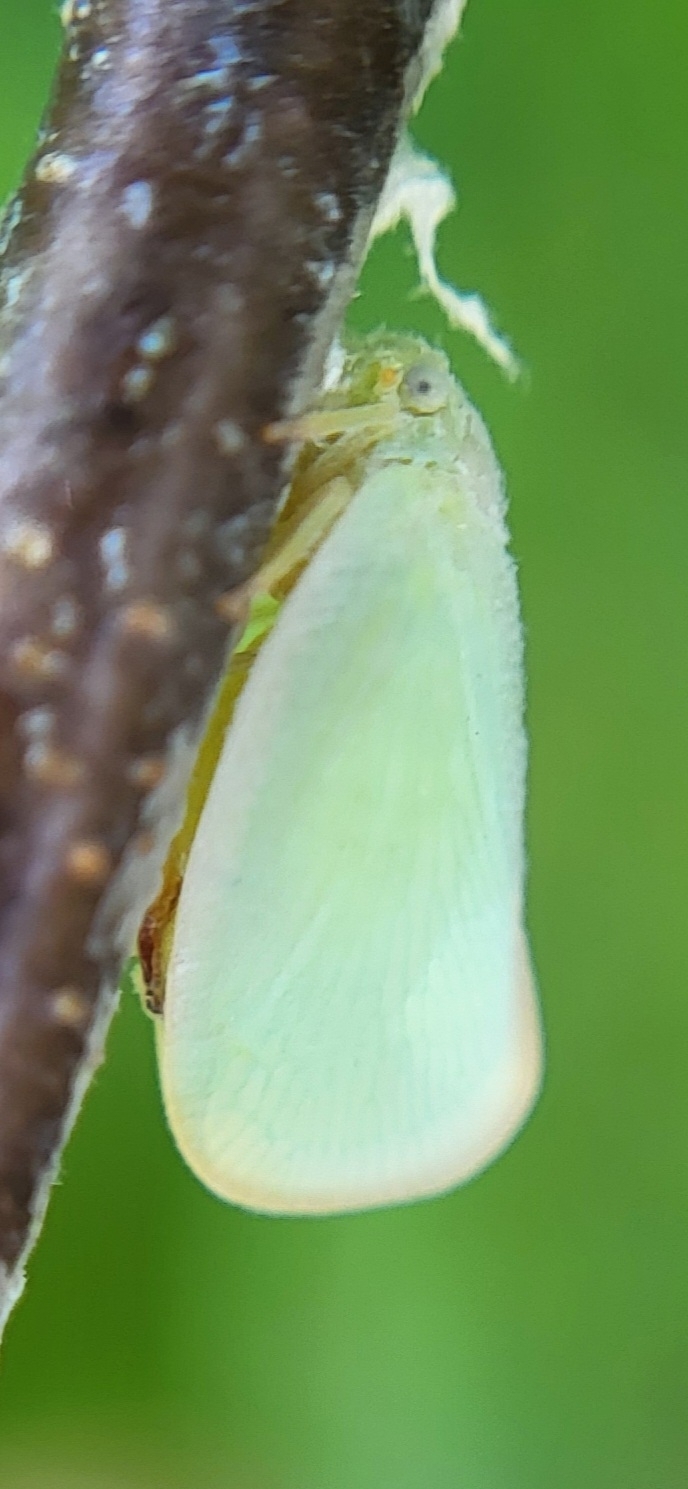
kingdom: Animalia
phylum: Arthropoda
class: Insecta
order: Hemiptera
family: Flatidae
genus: Ormenoides
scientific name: Ormenoides venusta
